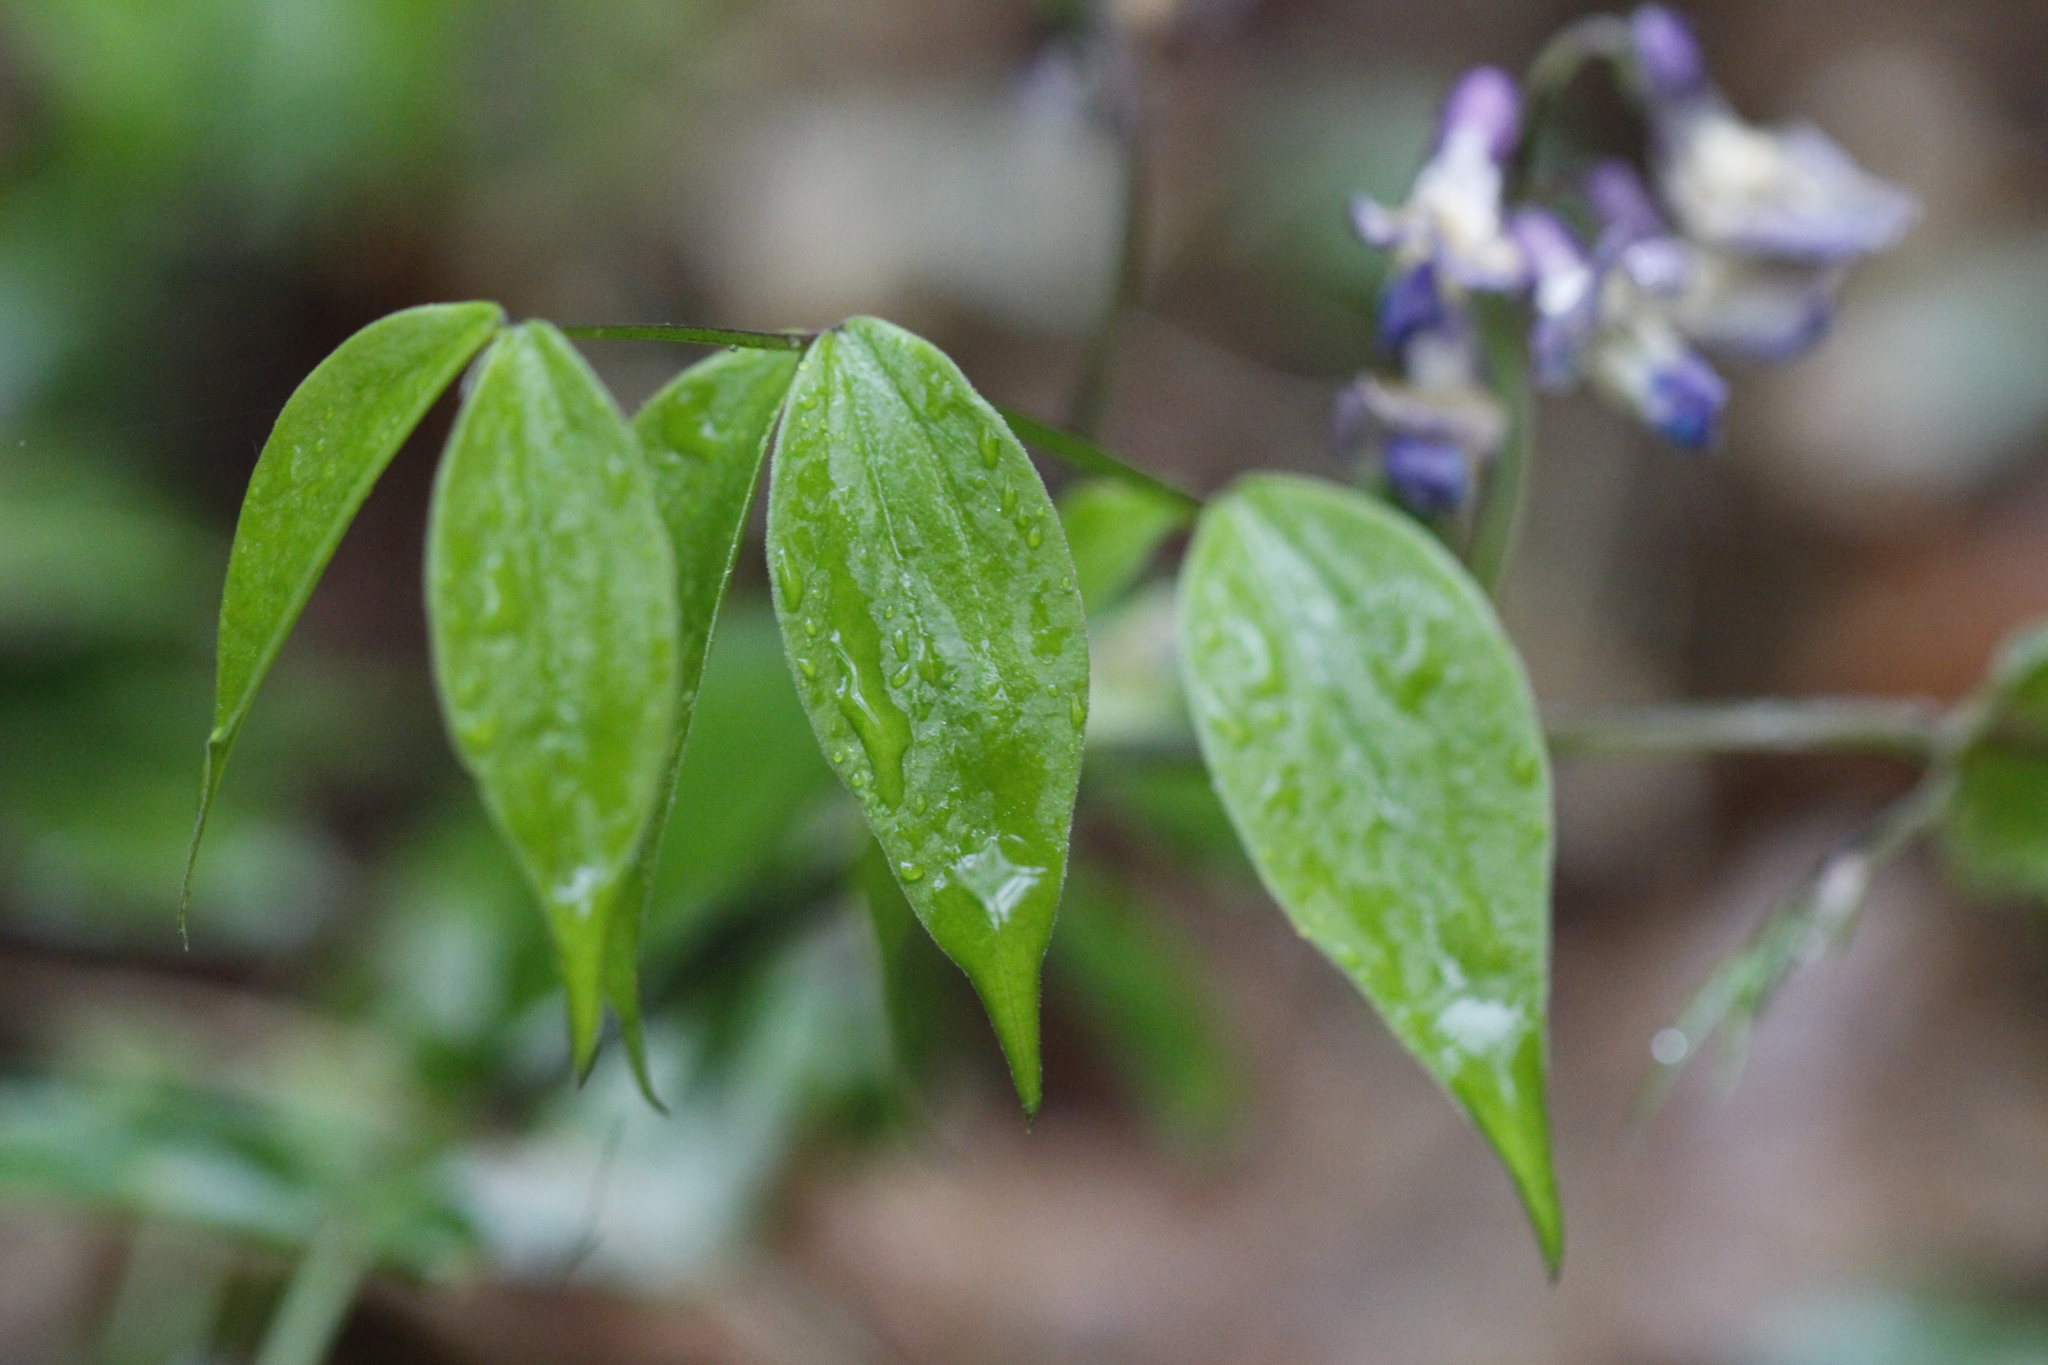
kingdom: Plantae
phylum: Tracheophyta
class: Magnoliopsida
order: Fabales
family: Fabaceae
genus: Lathyrus
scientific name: Lathyrus vernus
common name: Spring pea
